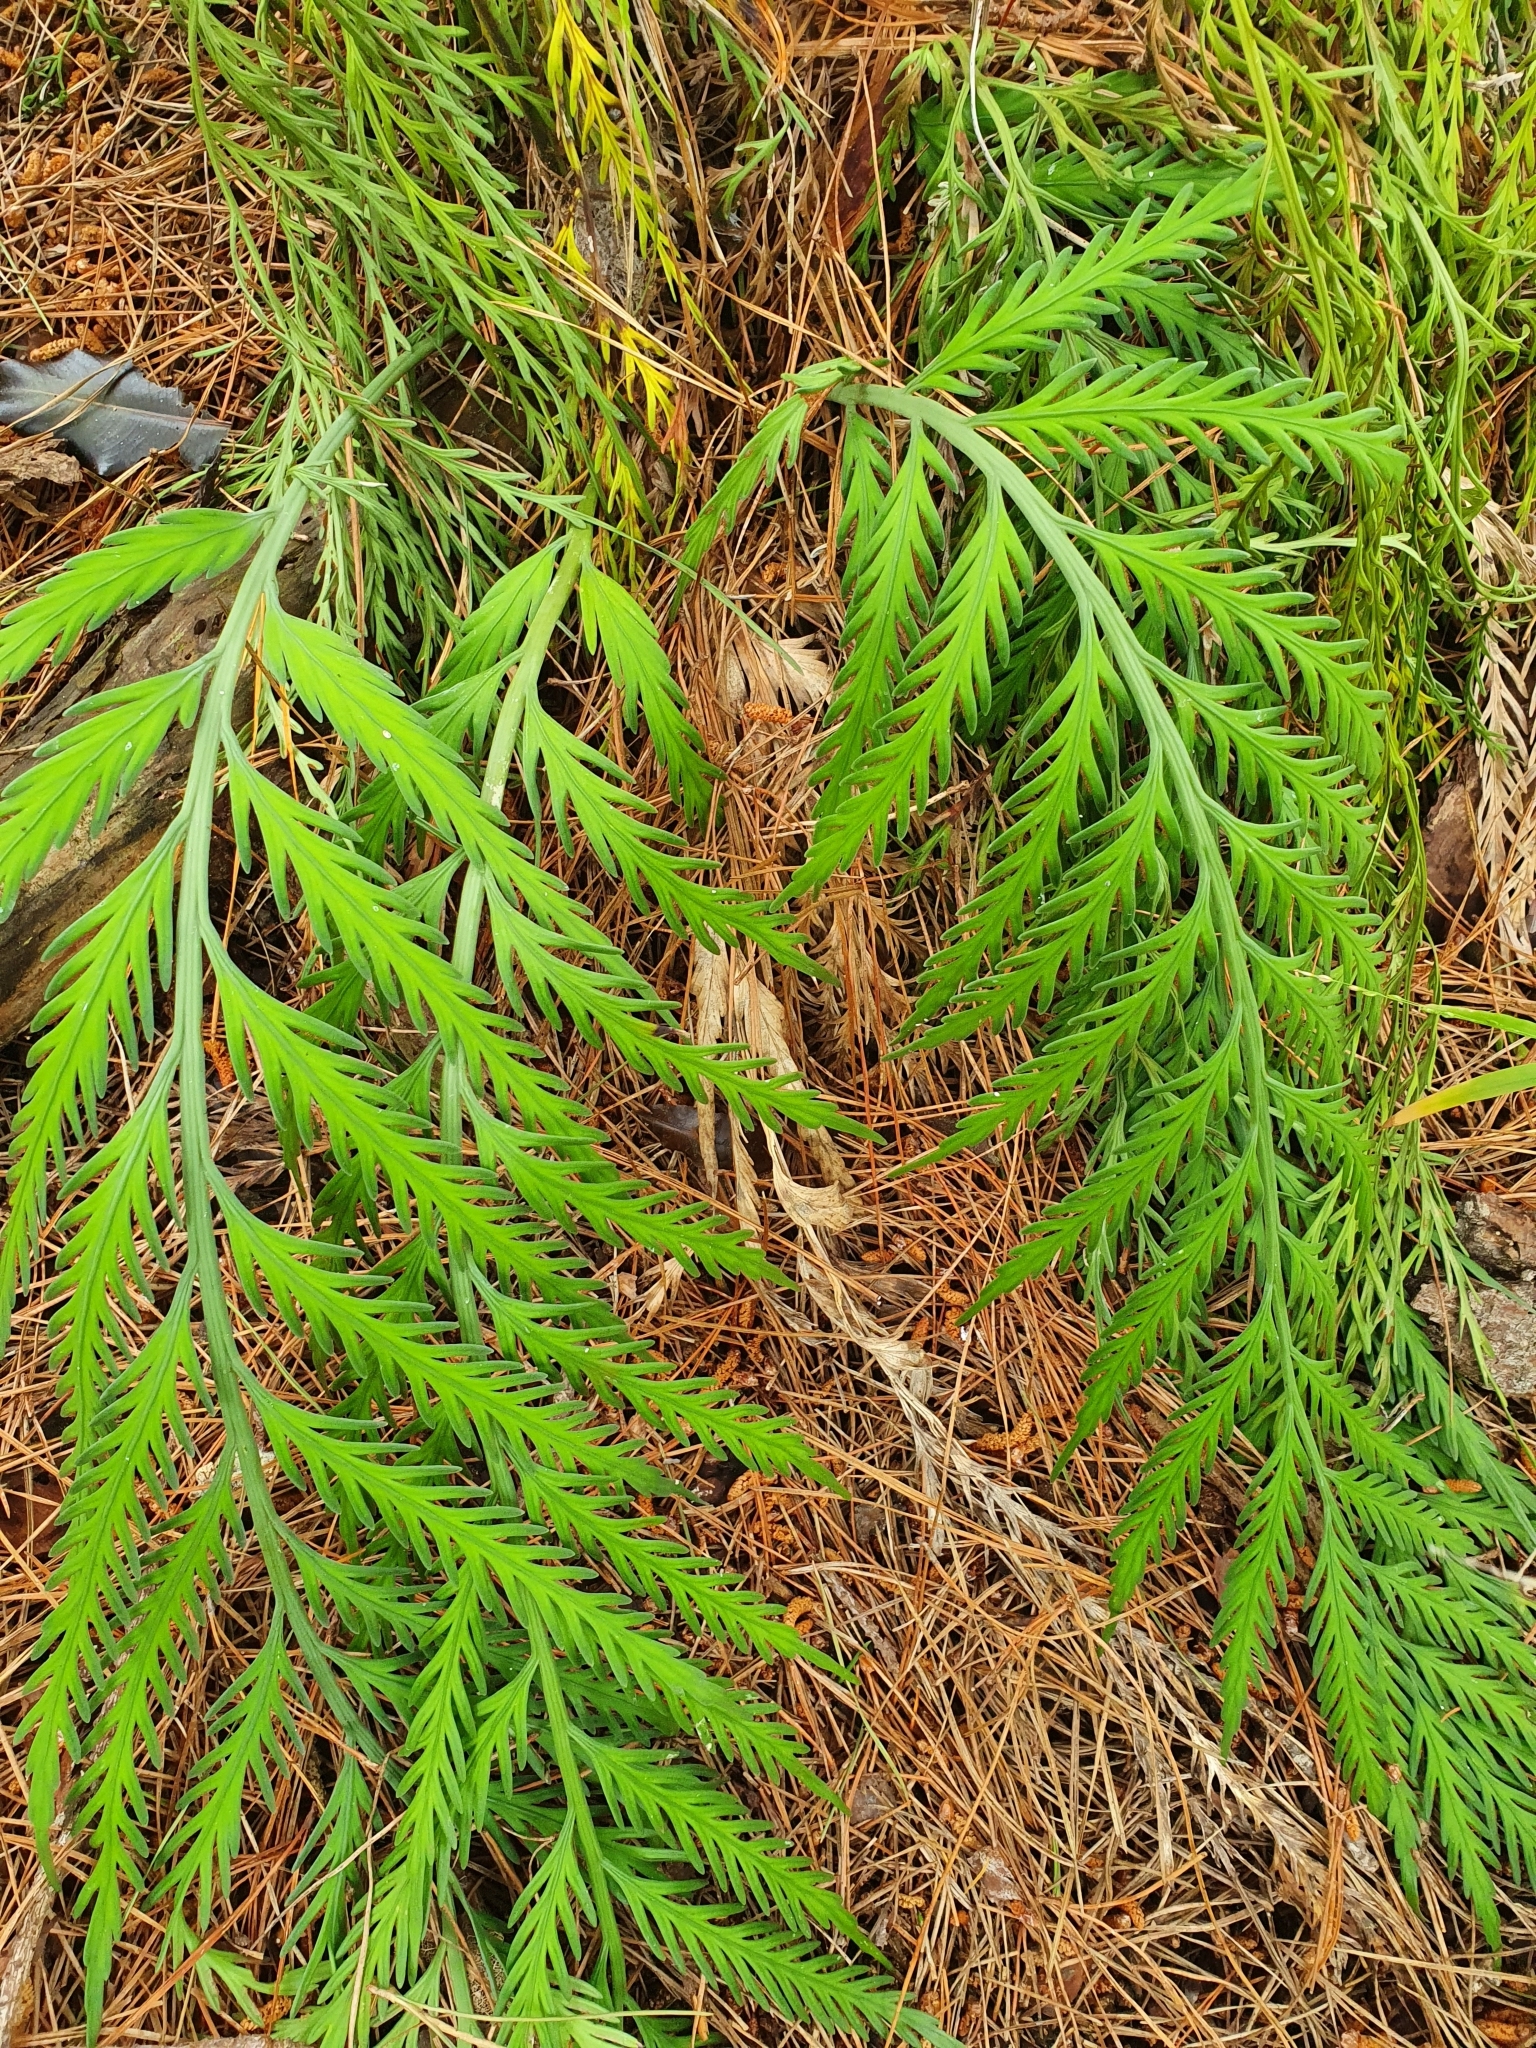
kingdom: Plantae
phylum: Tracheophyta
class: Polypodiopsida
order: Polypodiales
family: Aspleniaceae
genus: Asplenium
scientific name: Asplenium flaccidum
